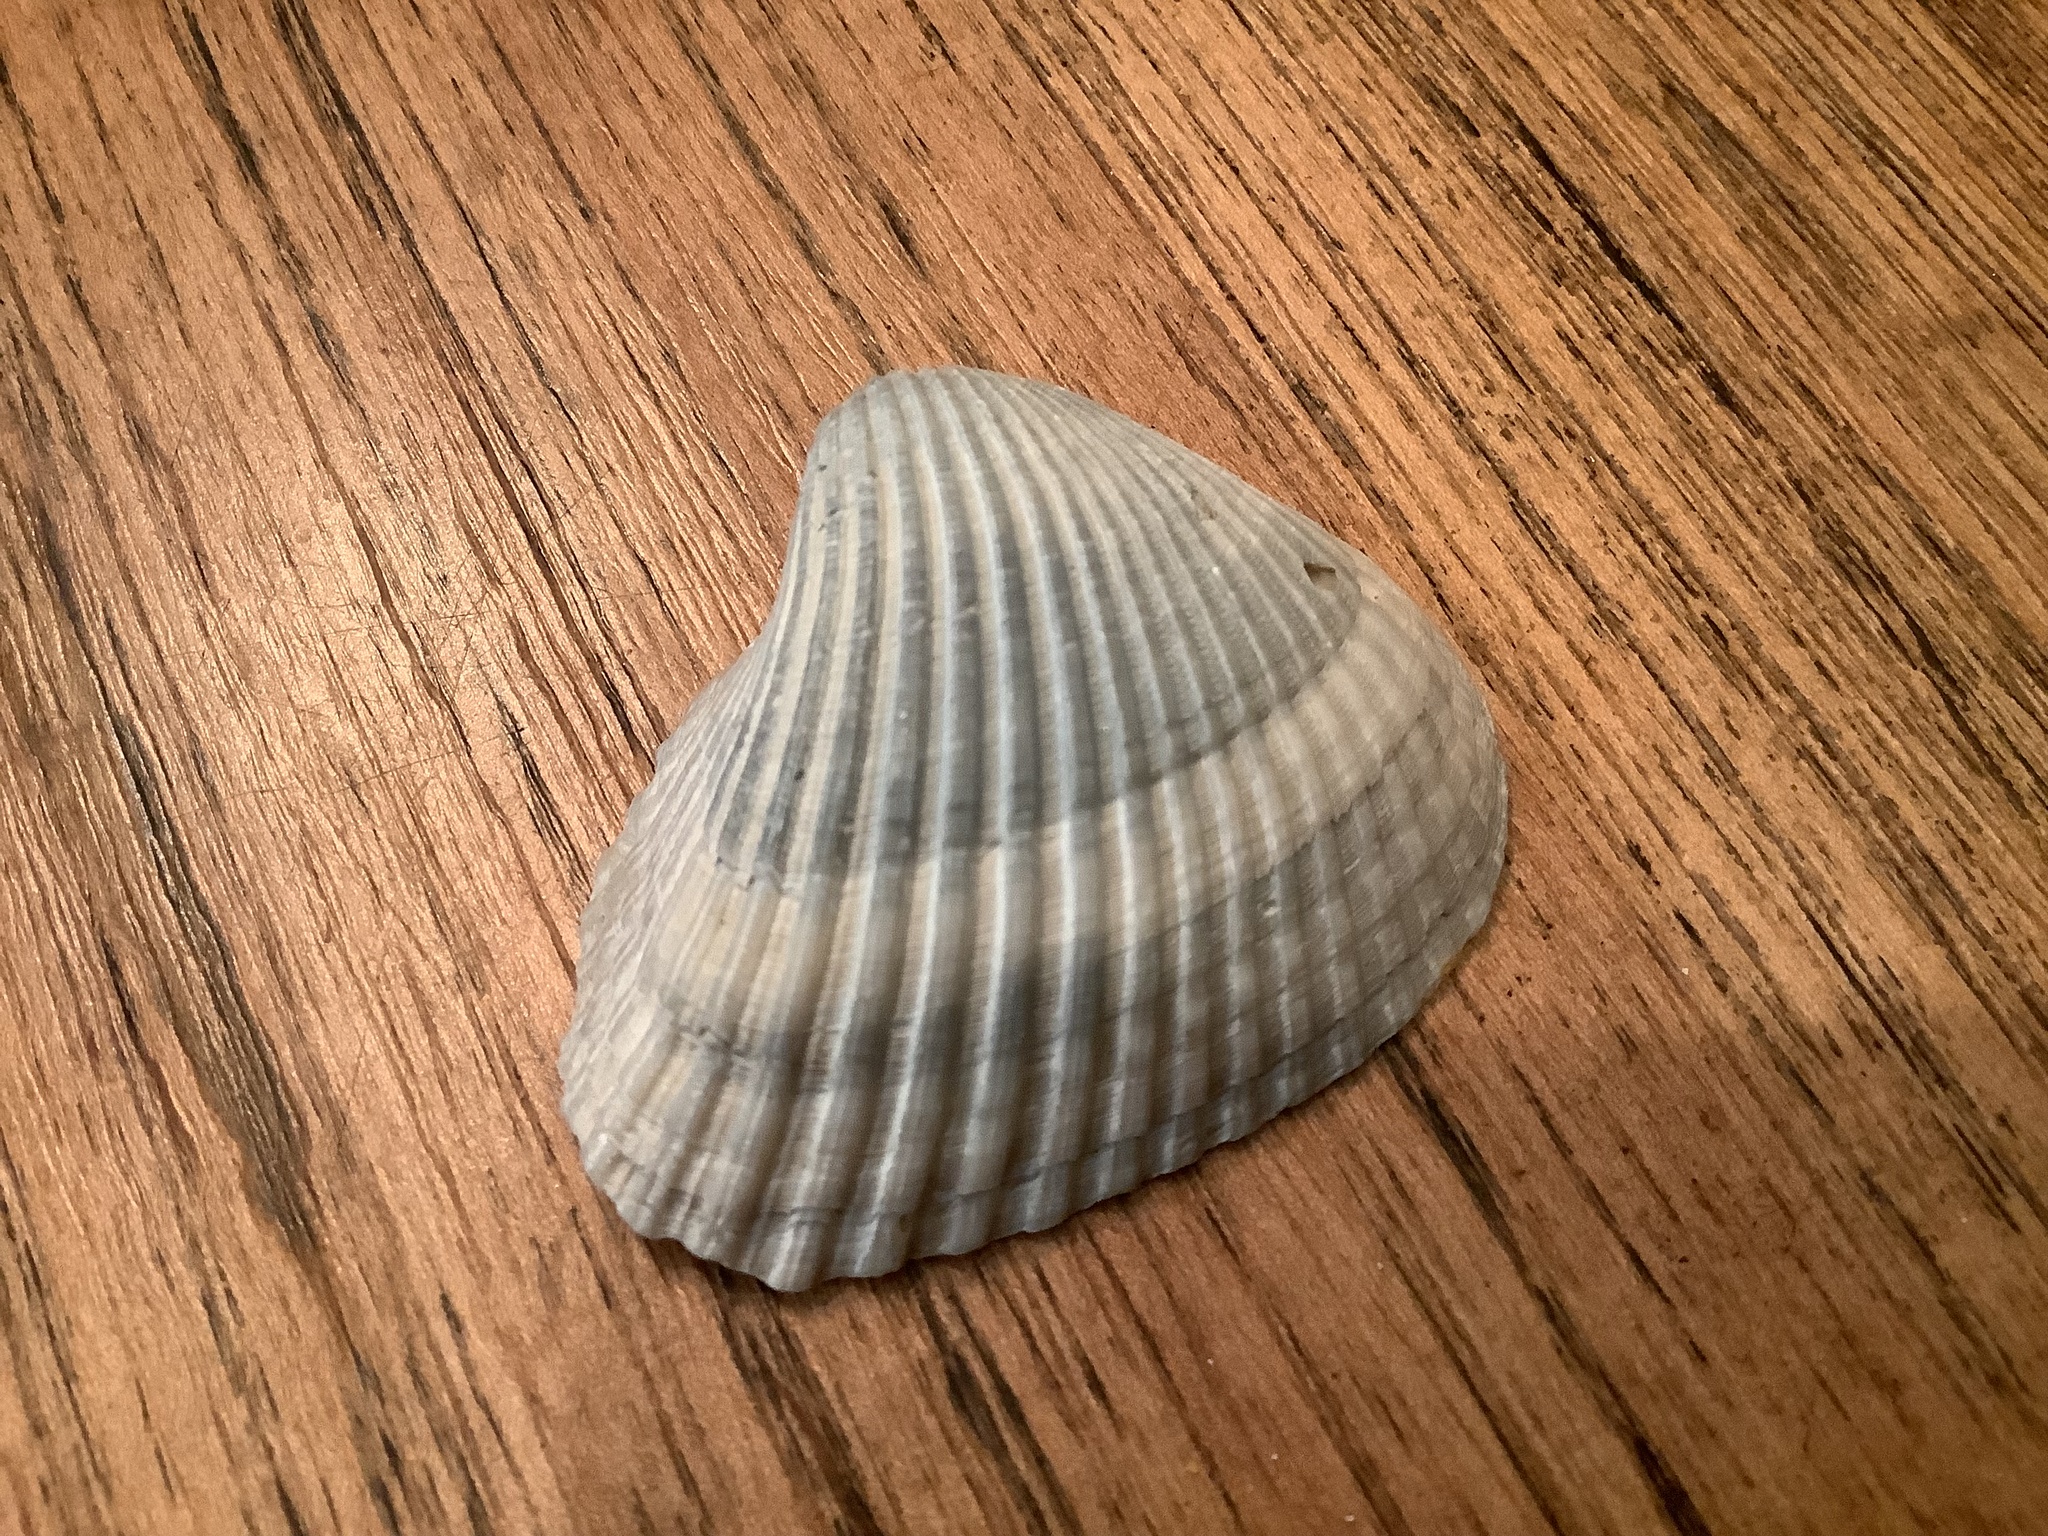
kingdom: Animalia
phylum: Mollusca
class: Bivalvia
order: Arcida
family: Noetiidae
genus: Noetia
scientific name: Noetia ponderosa
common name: Ponderous ark
